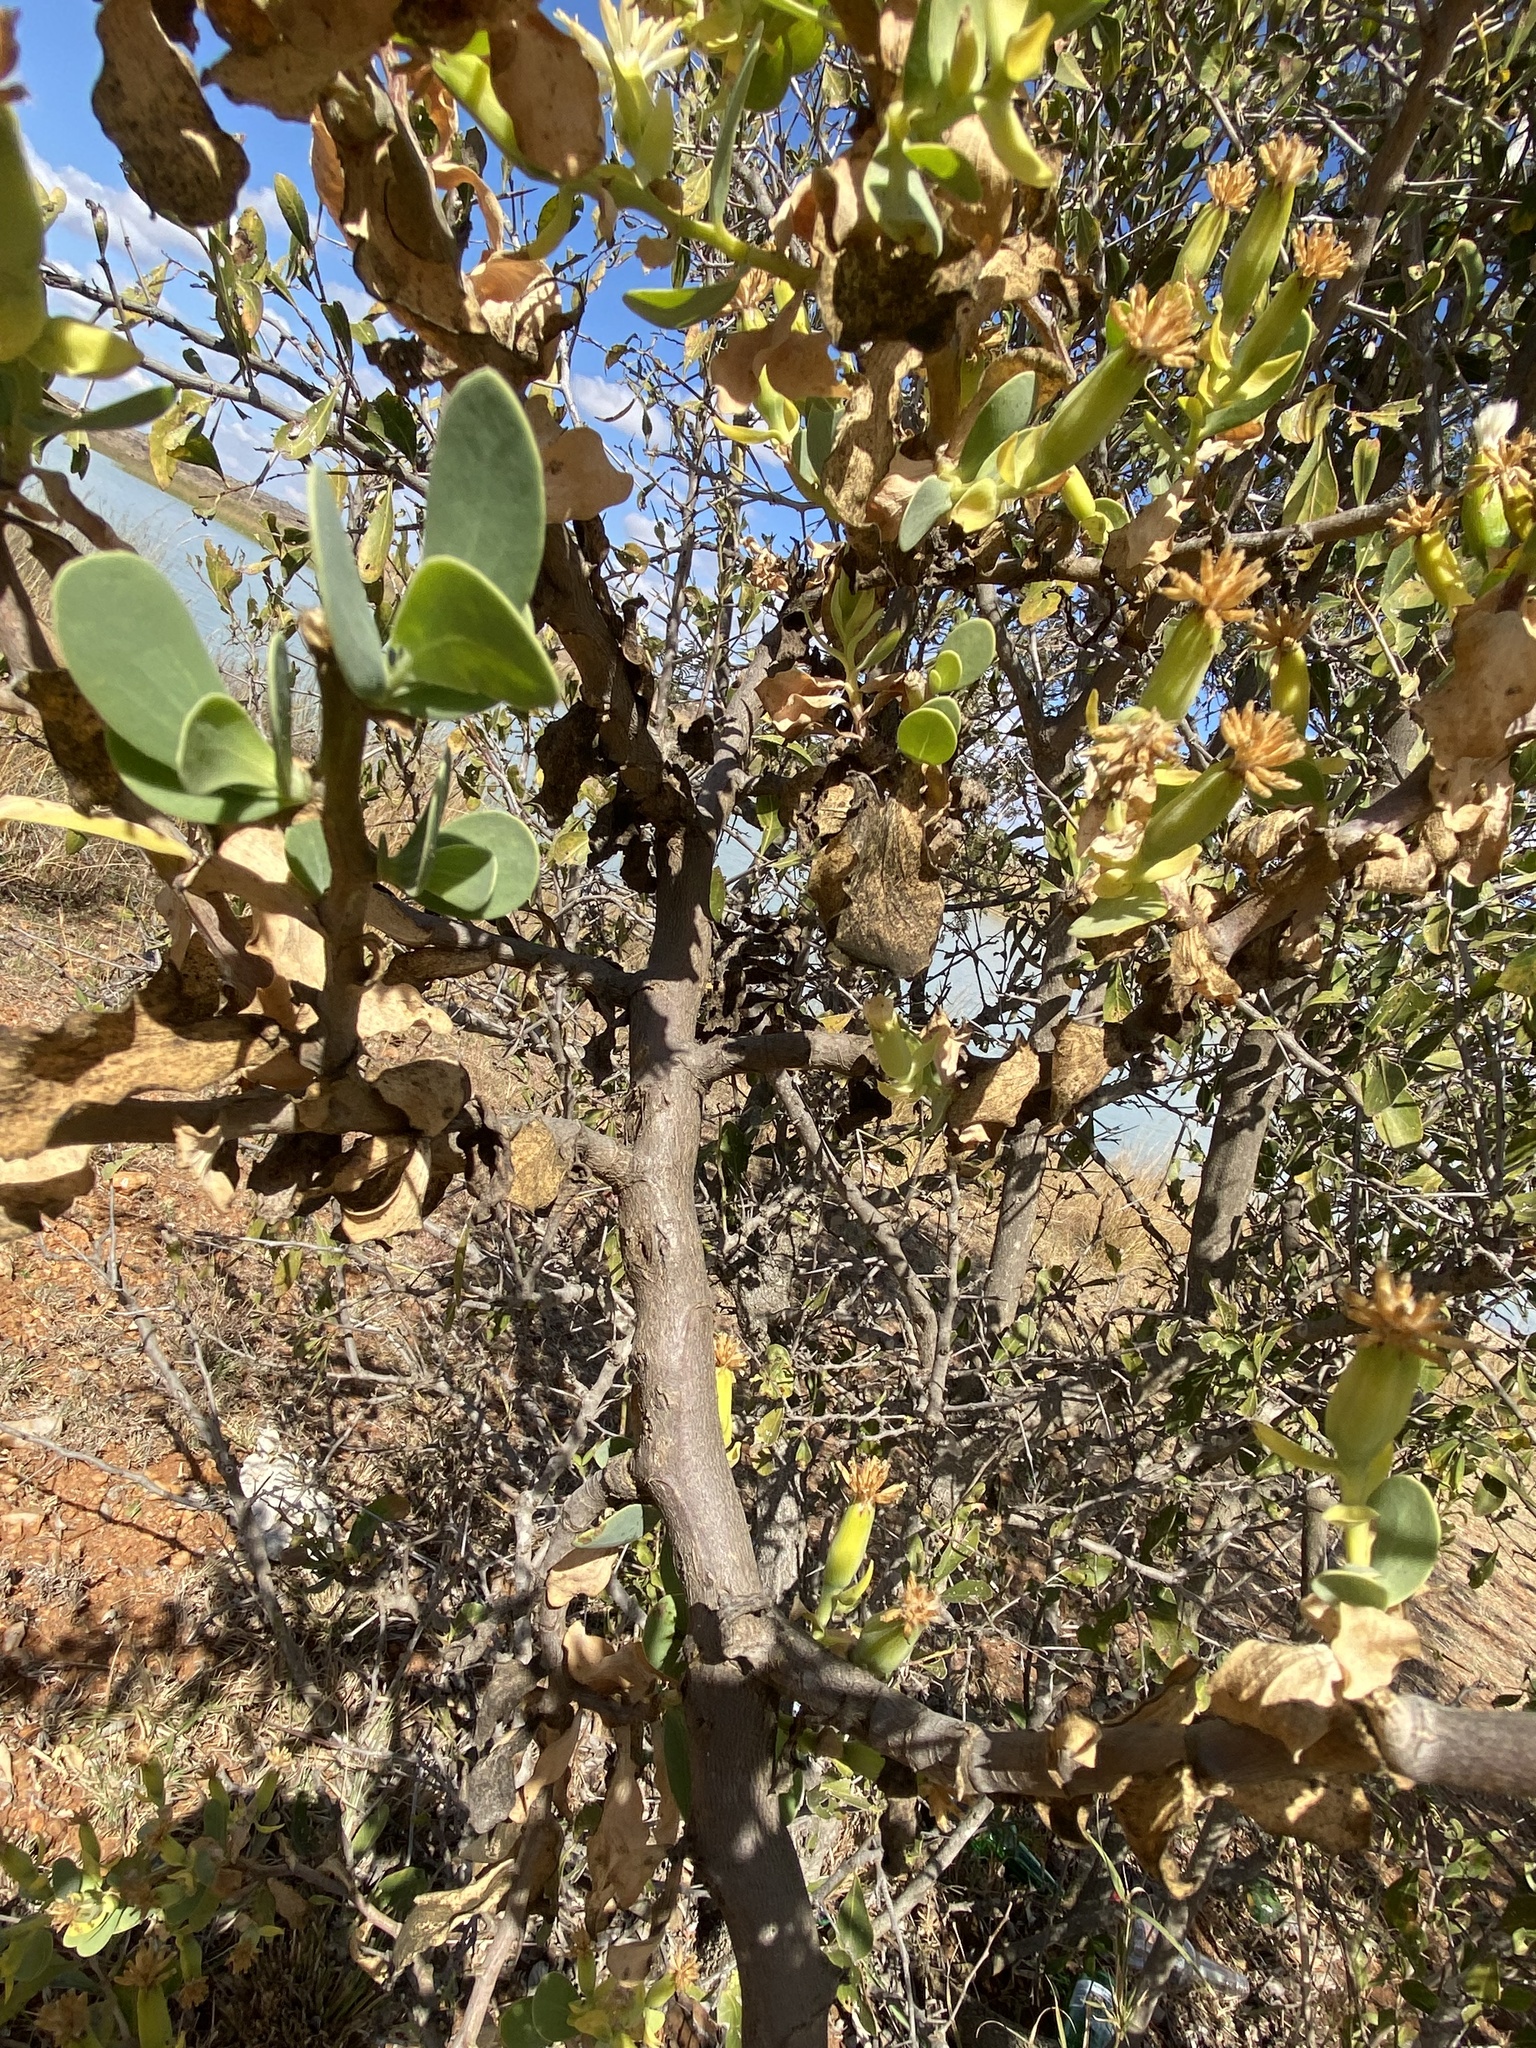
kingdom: Plantae
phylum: Tracheophyta
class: Magnoliopsida
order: Asterales
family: Asteraceae
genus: Lopholaena
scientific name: Lopholaena coriifolia
